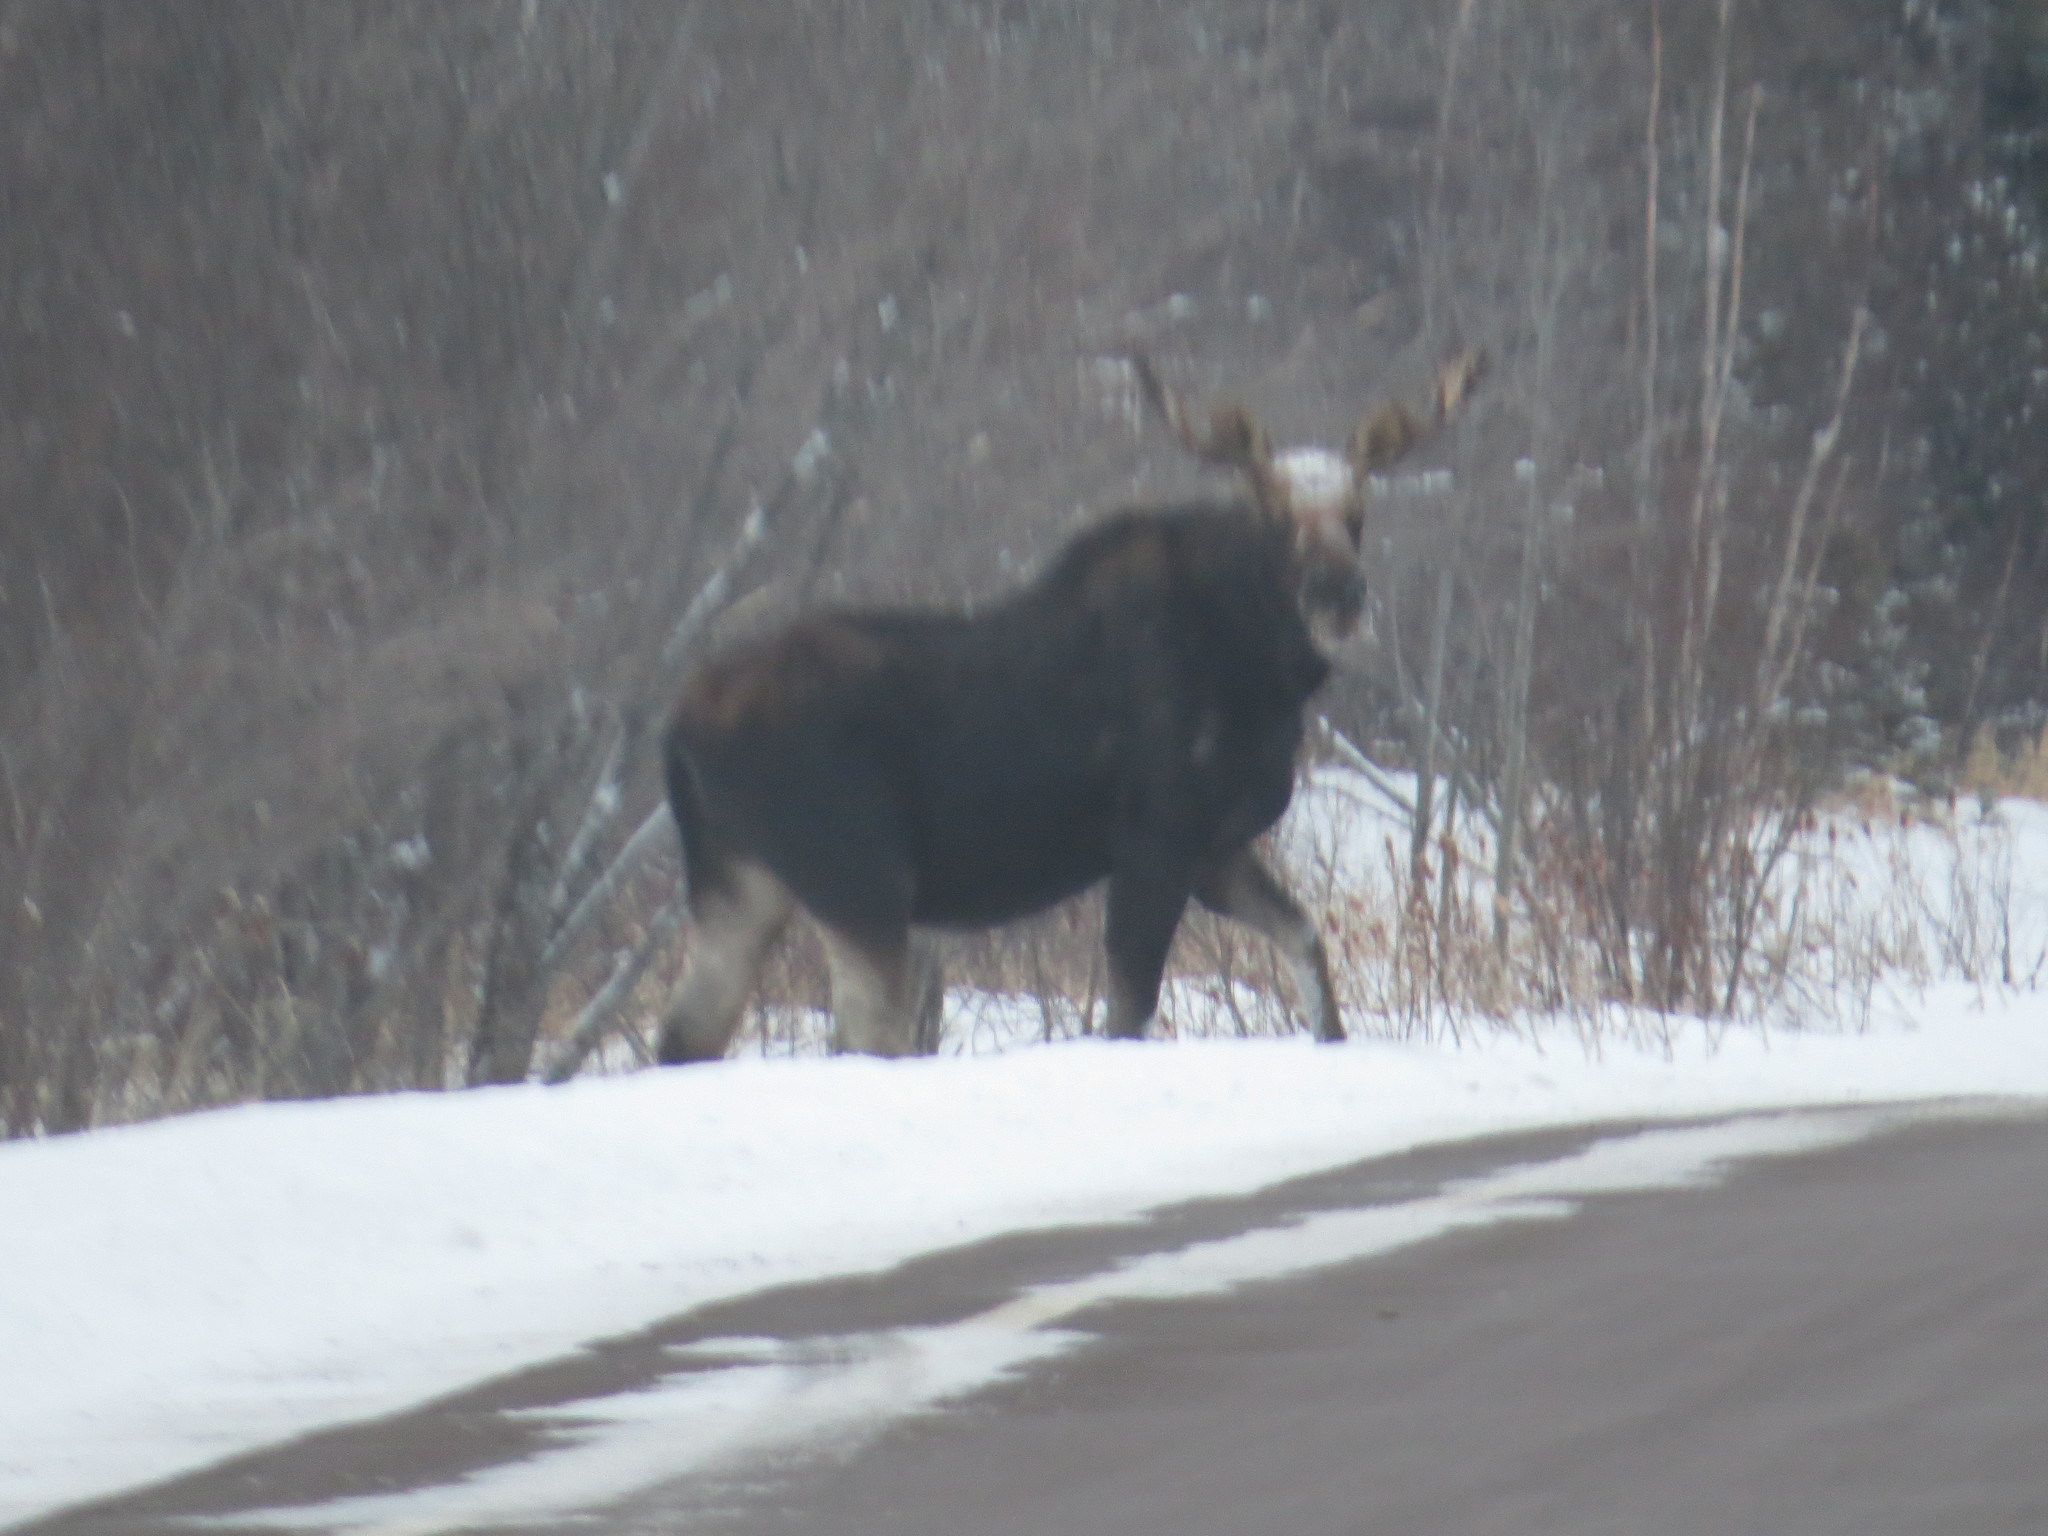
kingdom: Animalia
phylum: Chordata
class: Mammalia
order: Artiodactyla
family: Cervidae
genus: Alces
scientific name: Alces alces
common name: Moose
